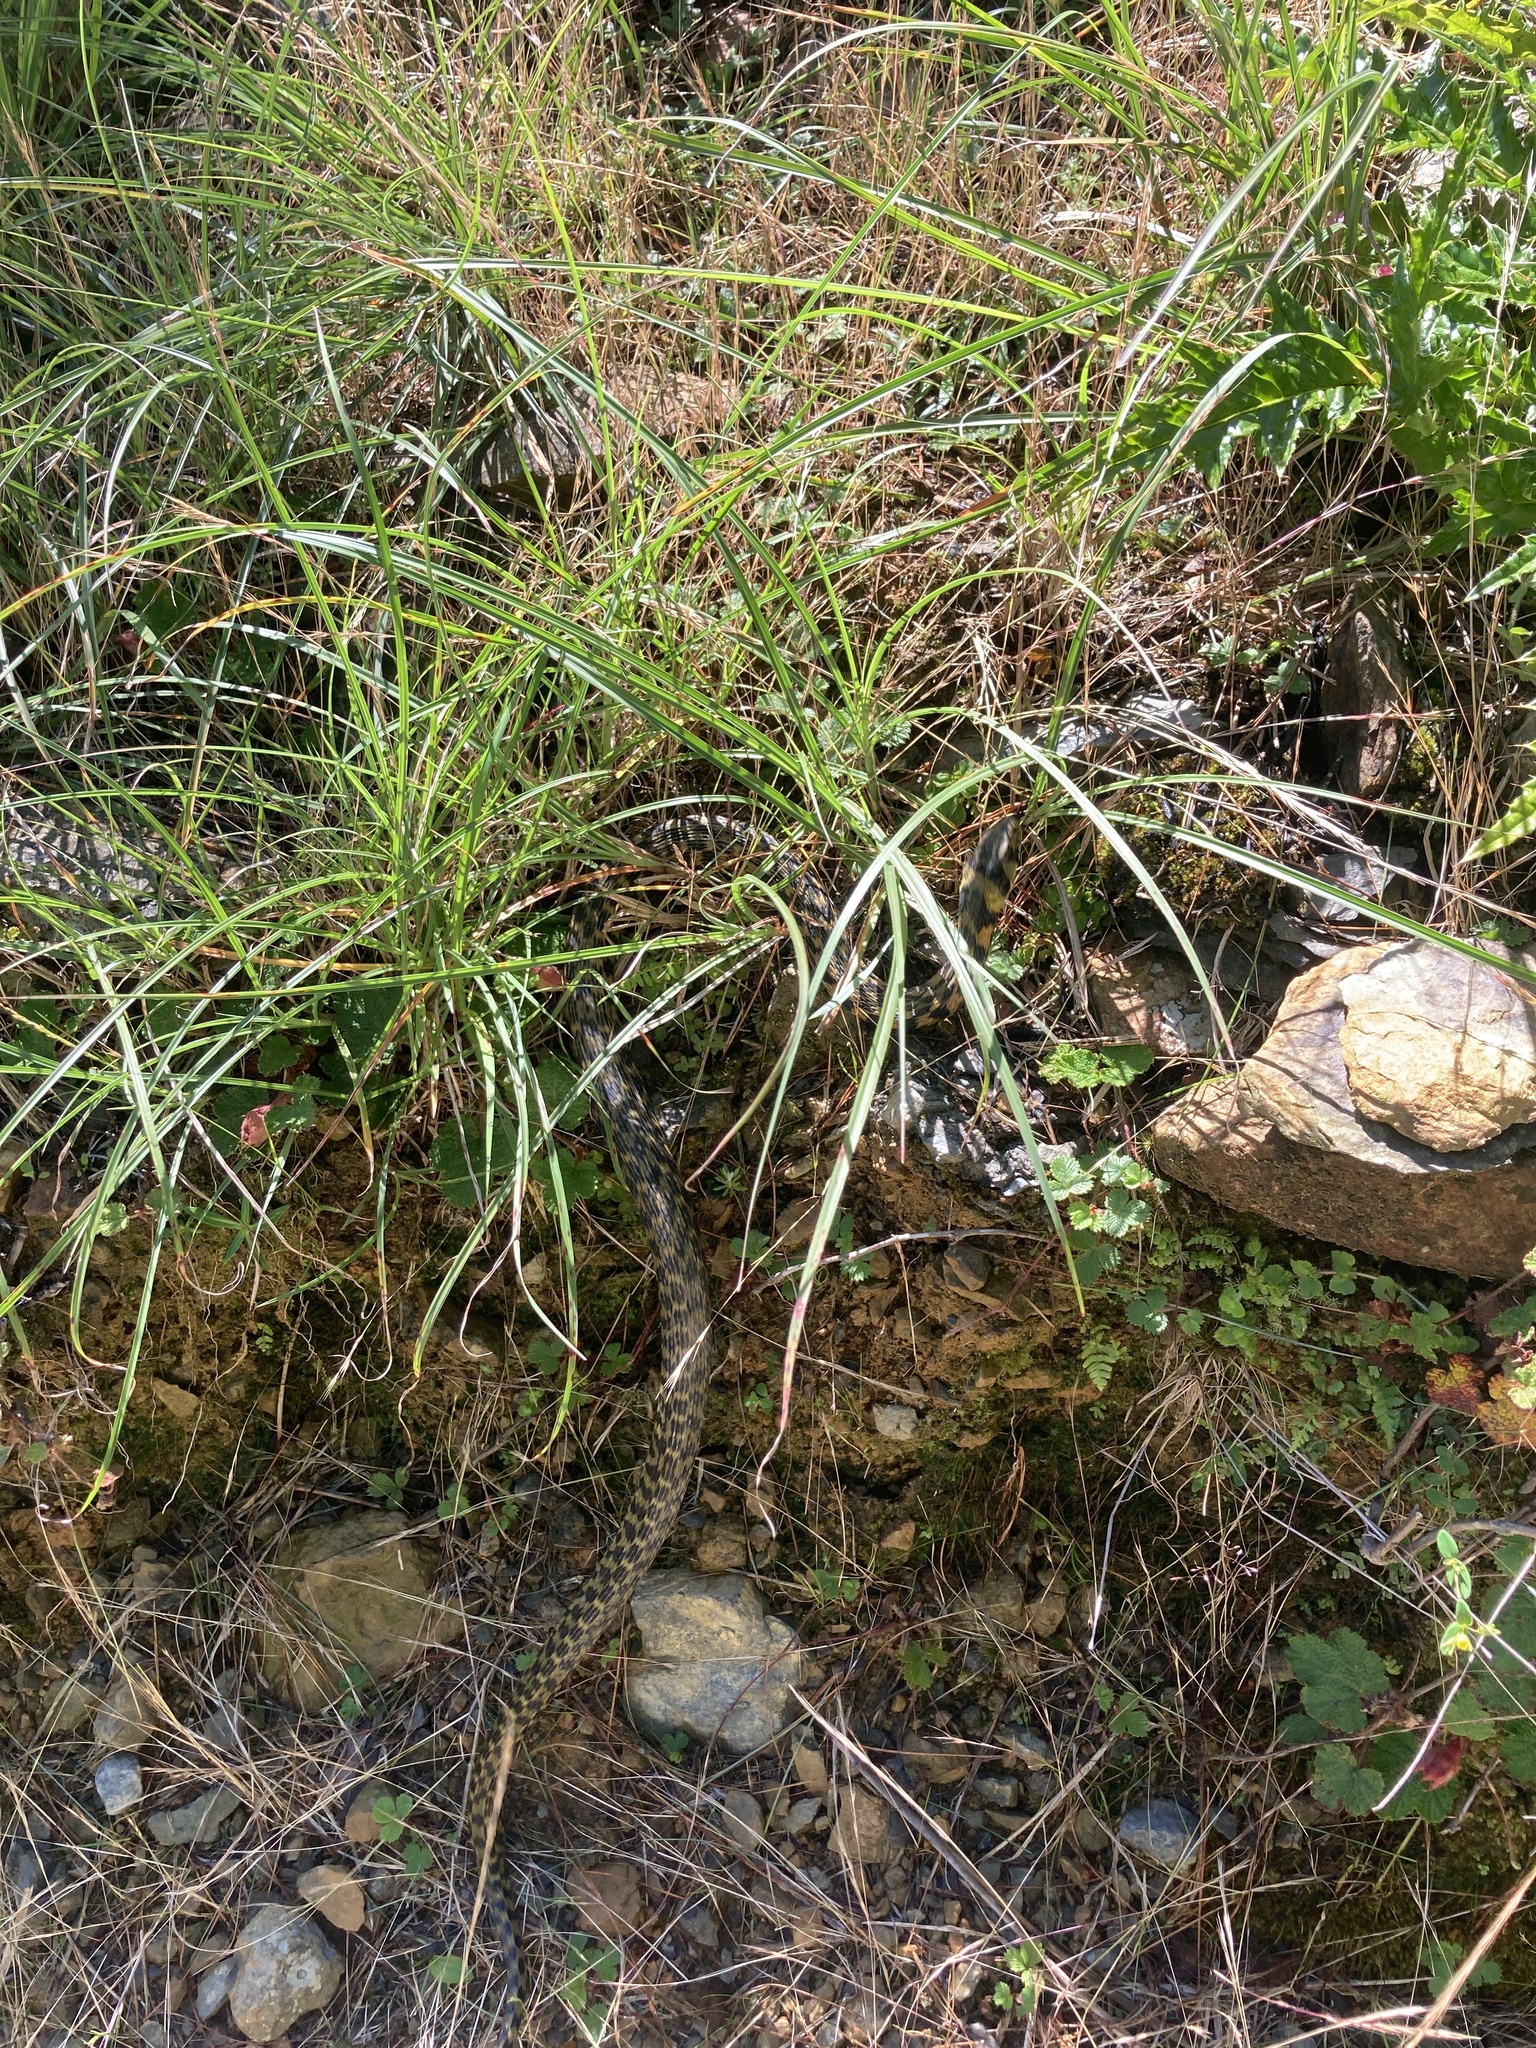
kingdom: Animalia
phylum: Chordata
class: Squamata
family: Colubridae
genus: Rhabdophis
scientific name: Rhabdophis
